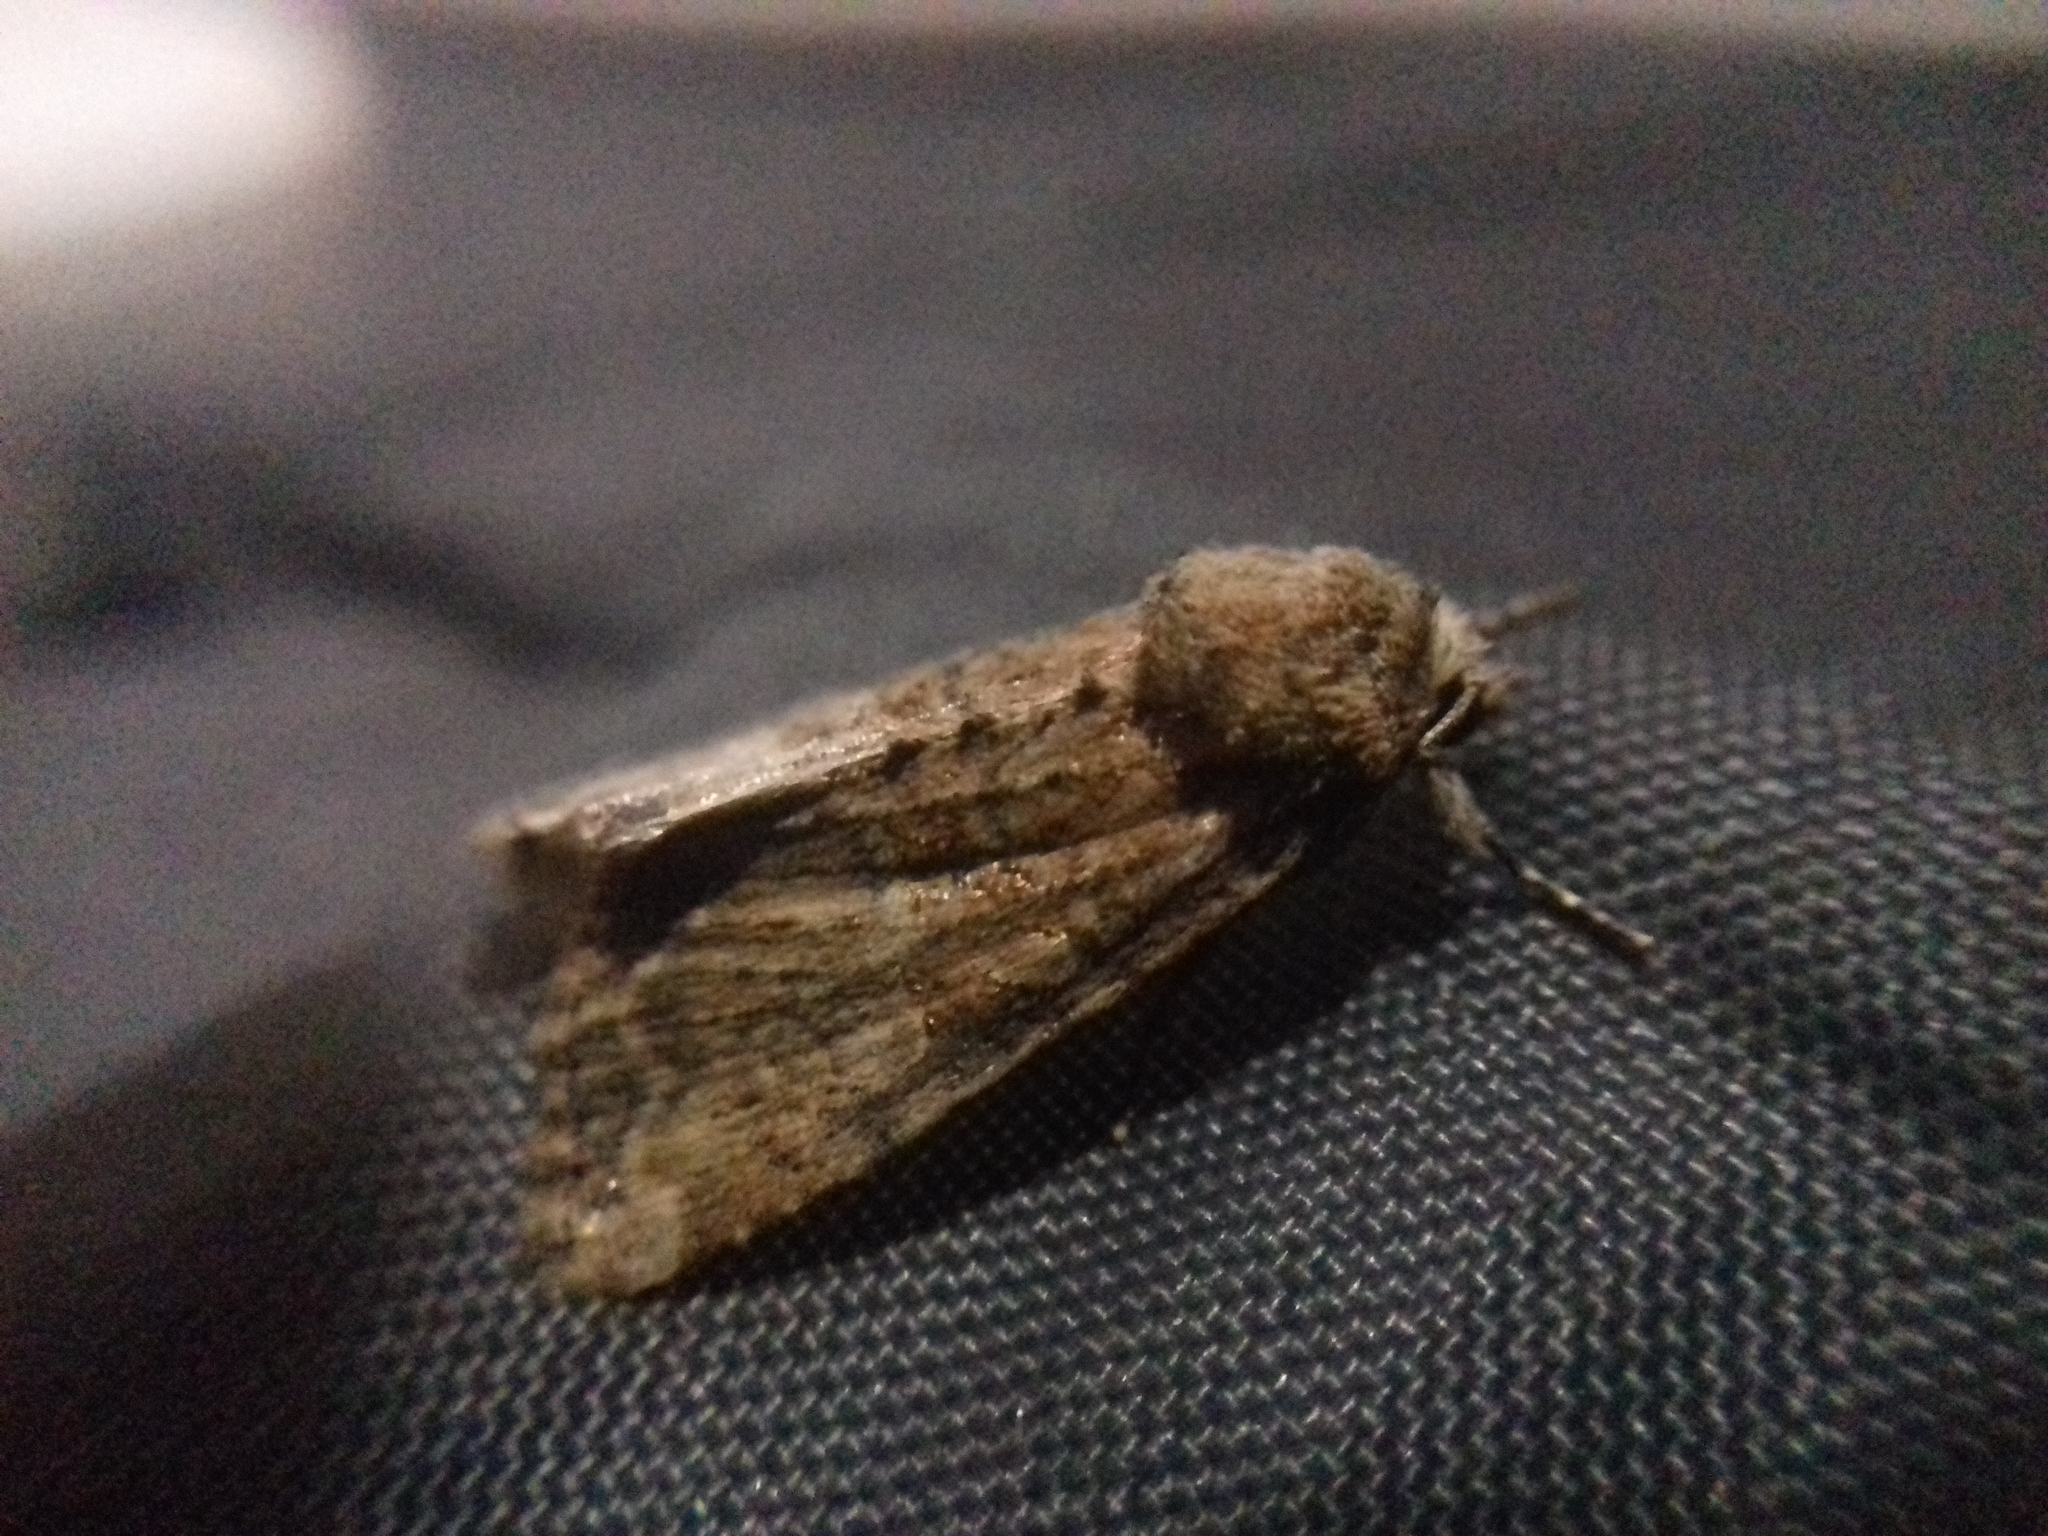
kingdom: Animalia
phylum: Arthropoda
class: Insecta
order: Lepidoptera
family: Noctuidae
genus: Mesoligia
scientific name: Mesoligia furuncula
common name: Cloaked minor
